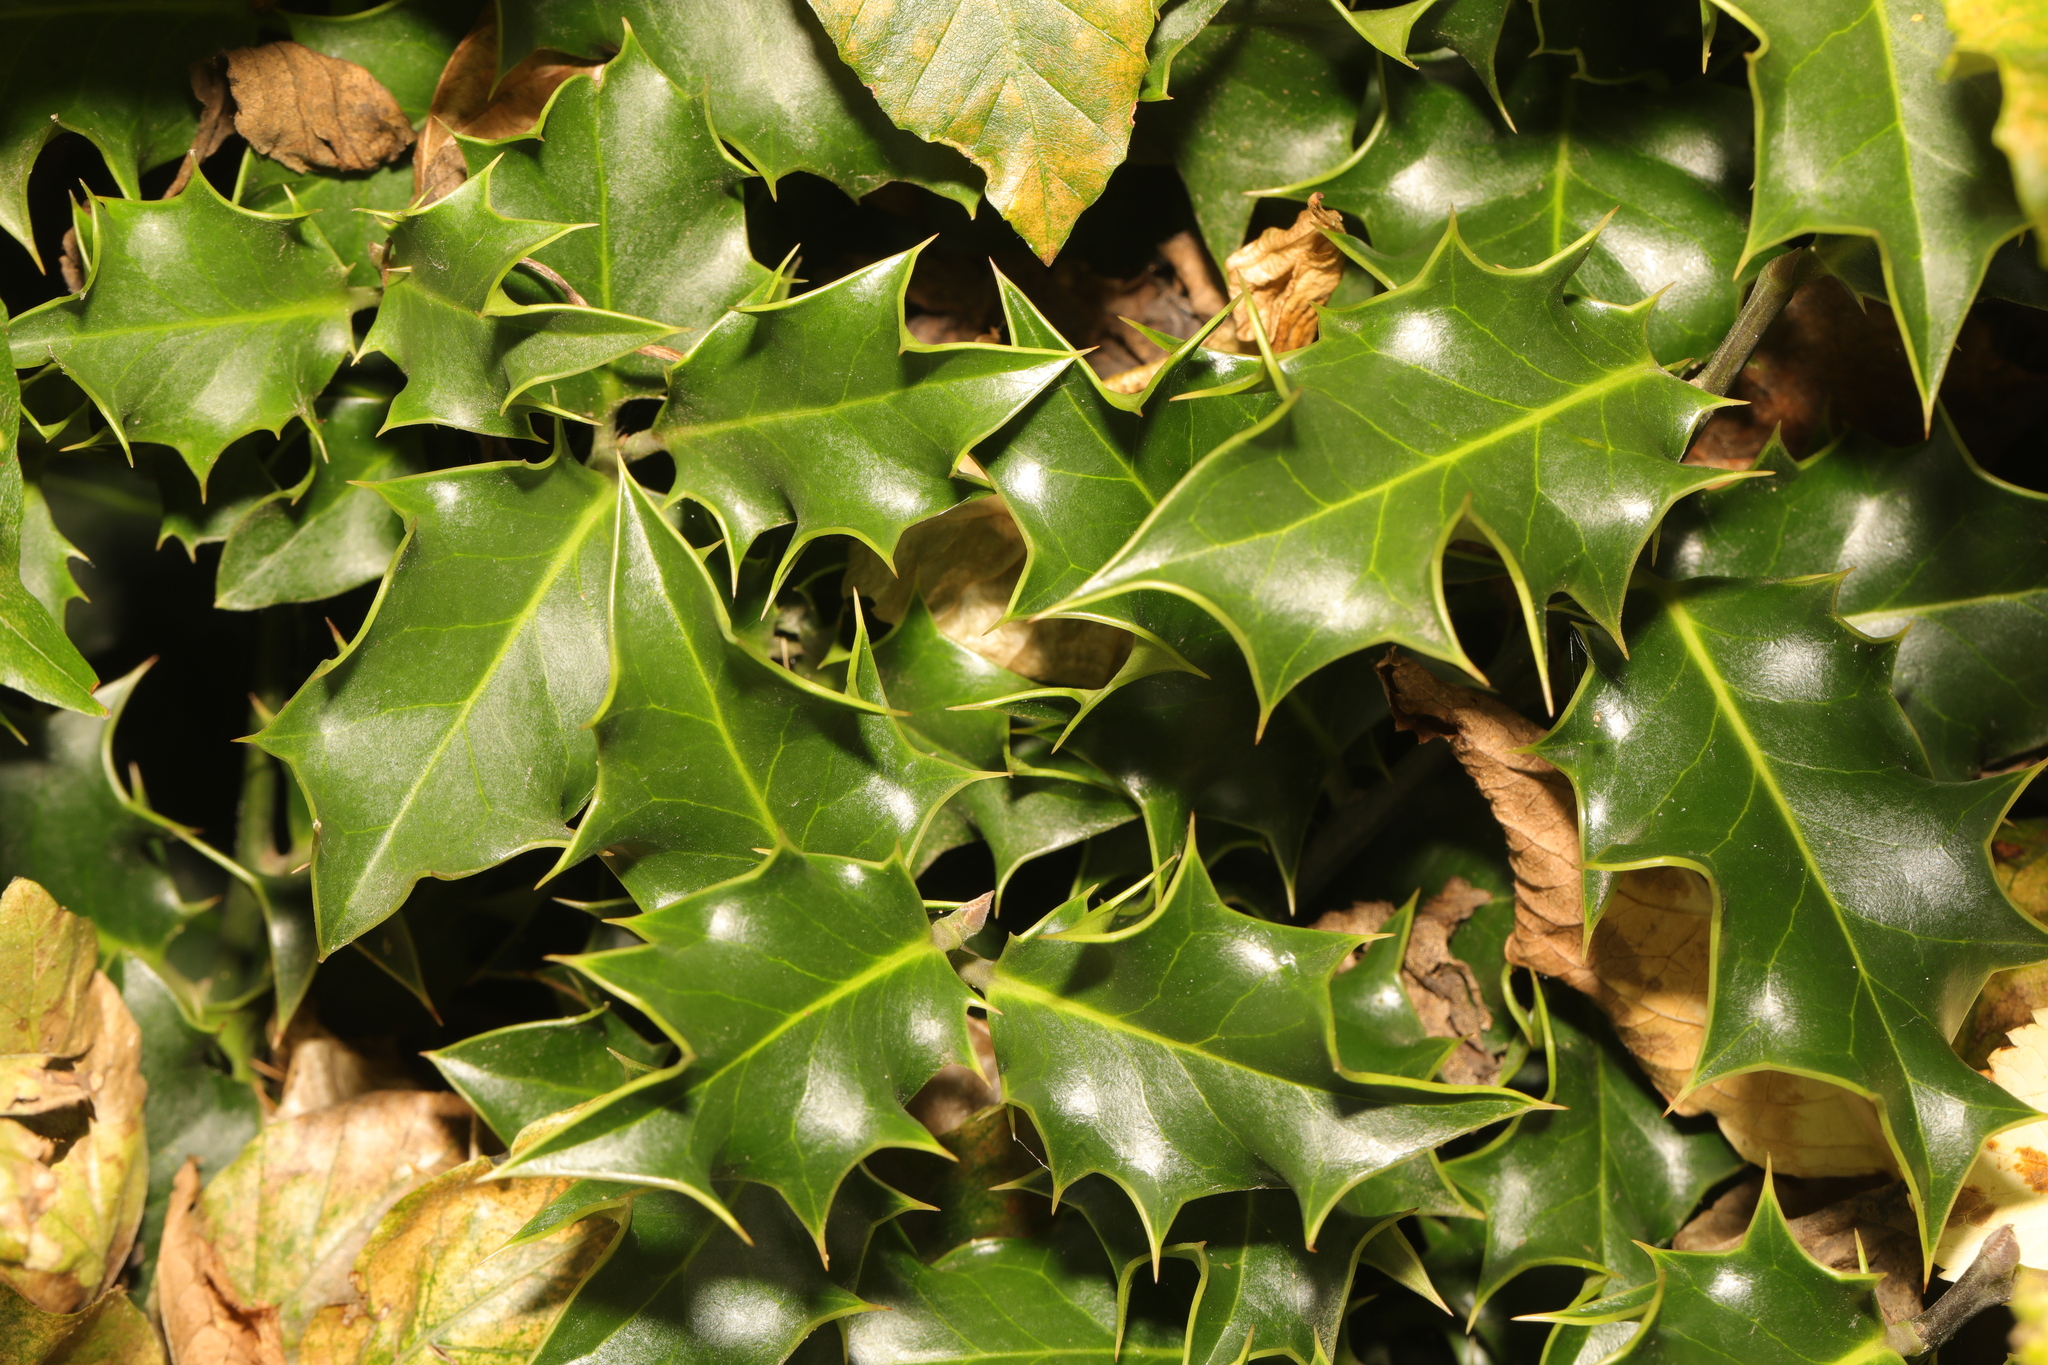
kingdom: Plantae
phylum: Tracheophyta
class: Magnoliopsida
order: Aquifoliales
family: Aquifoliaceae
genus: Ilex
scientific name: Ilex aquifolium
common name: English holly
